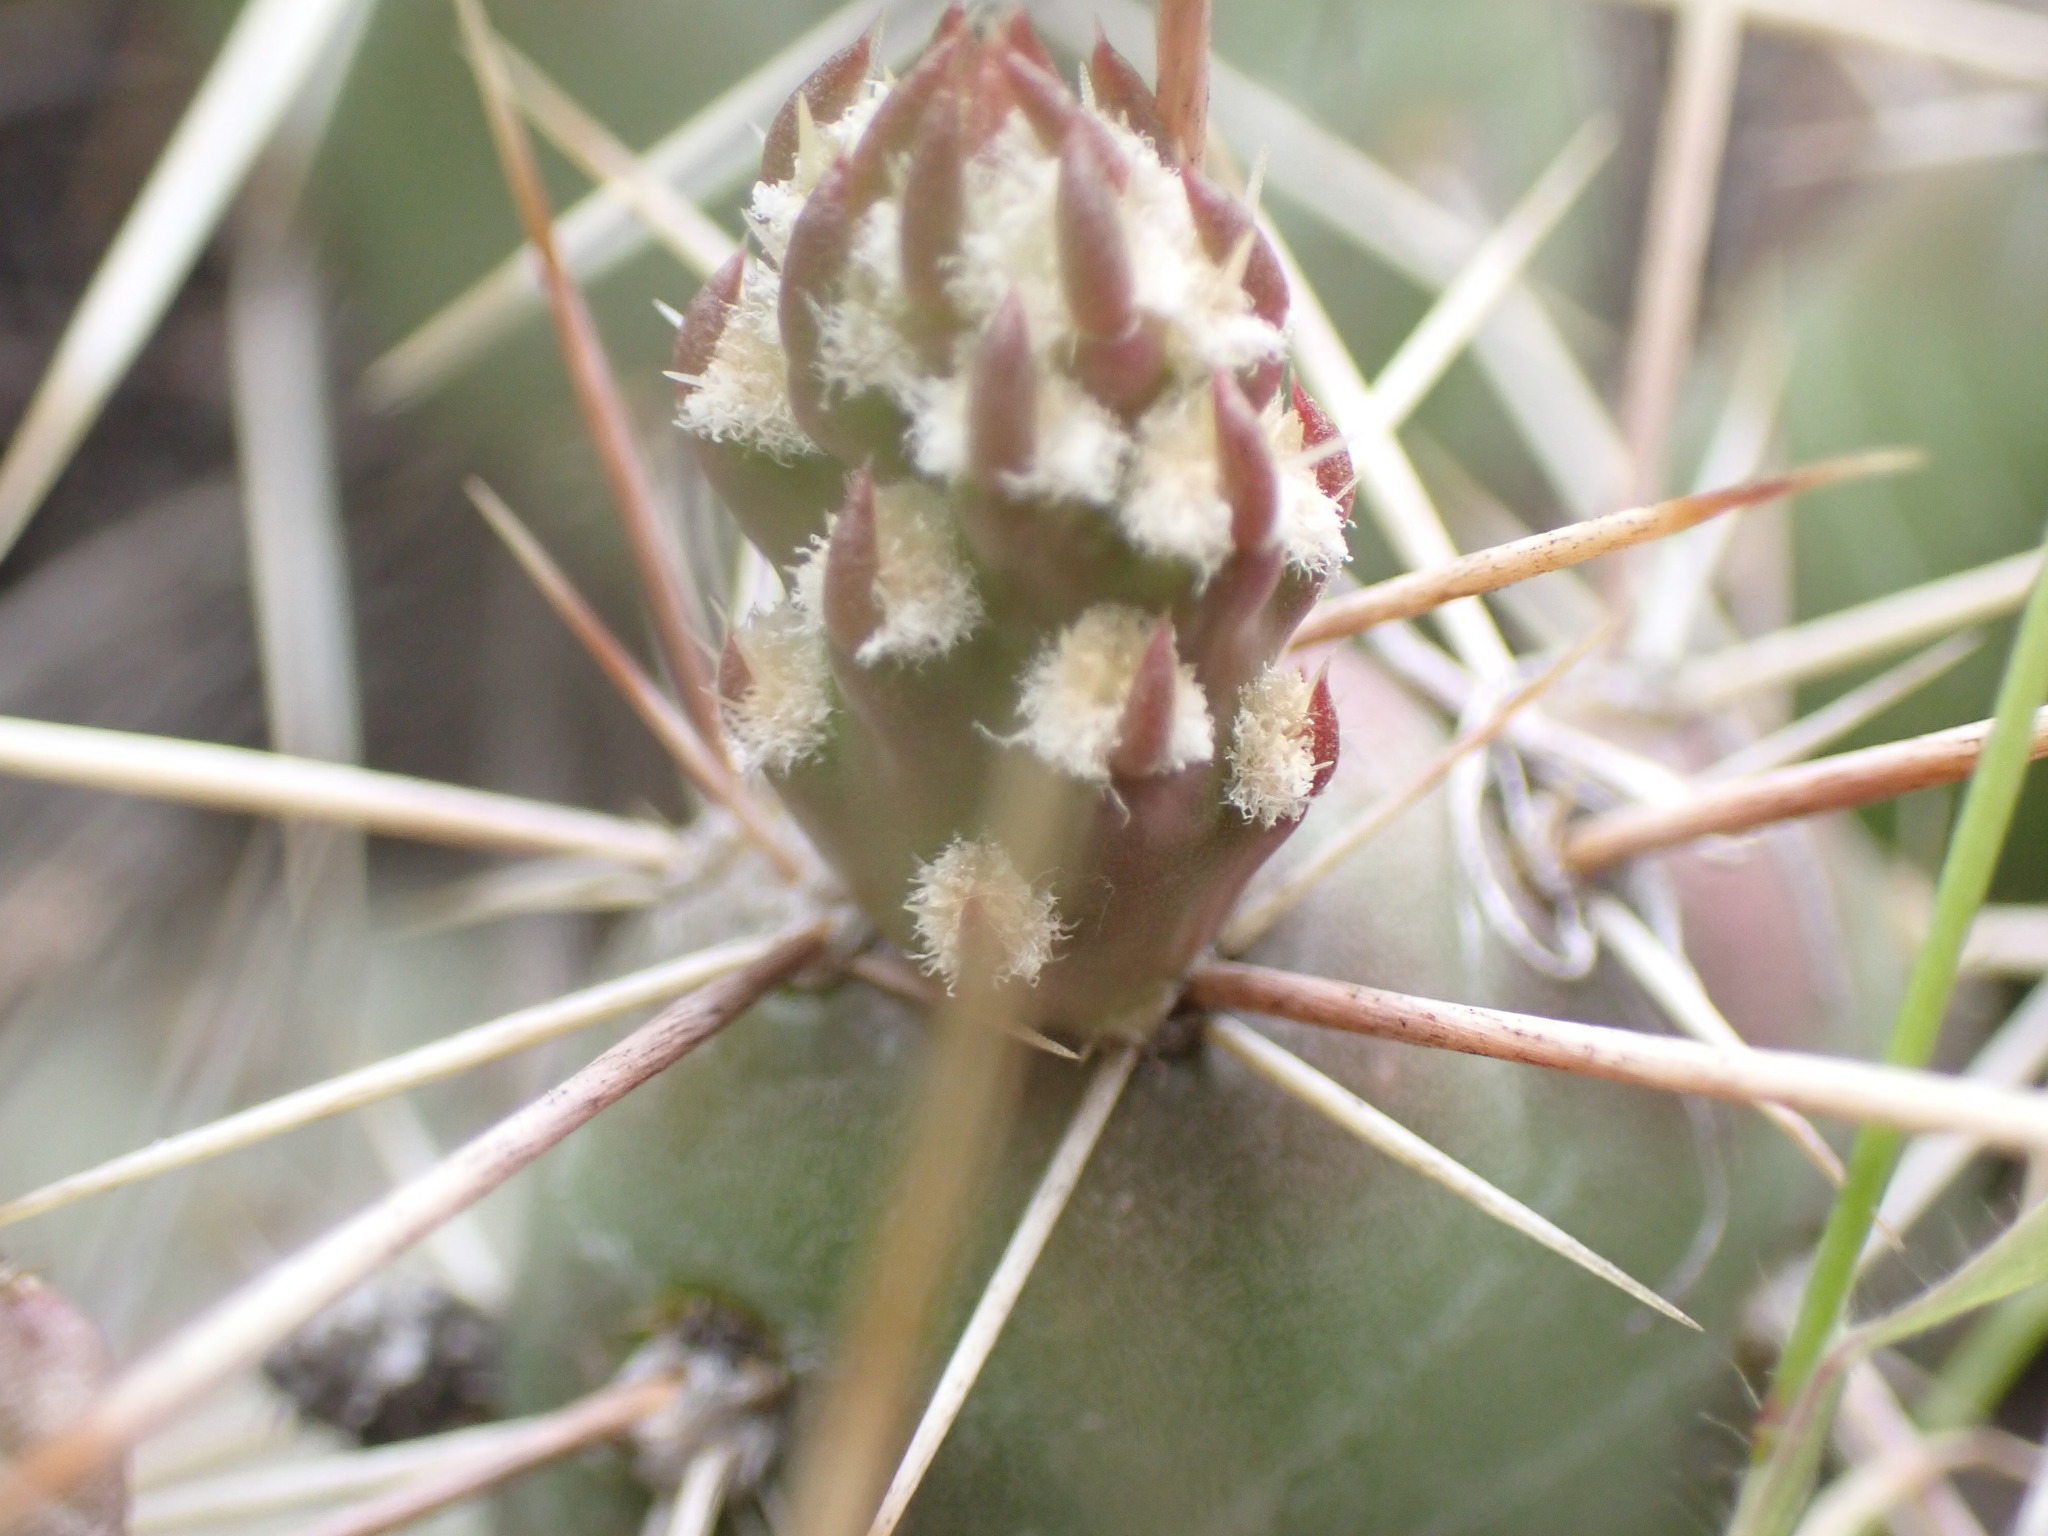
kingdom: Plantae
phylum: Tracheophyta
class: Magnoliopsida
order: Caryophyllales
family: Cactaceae
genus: Opuntia
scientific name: Opuntia fragilis
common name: Brittle cactus
